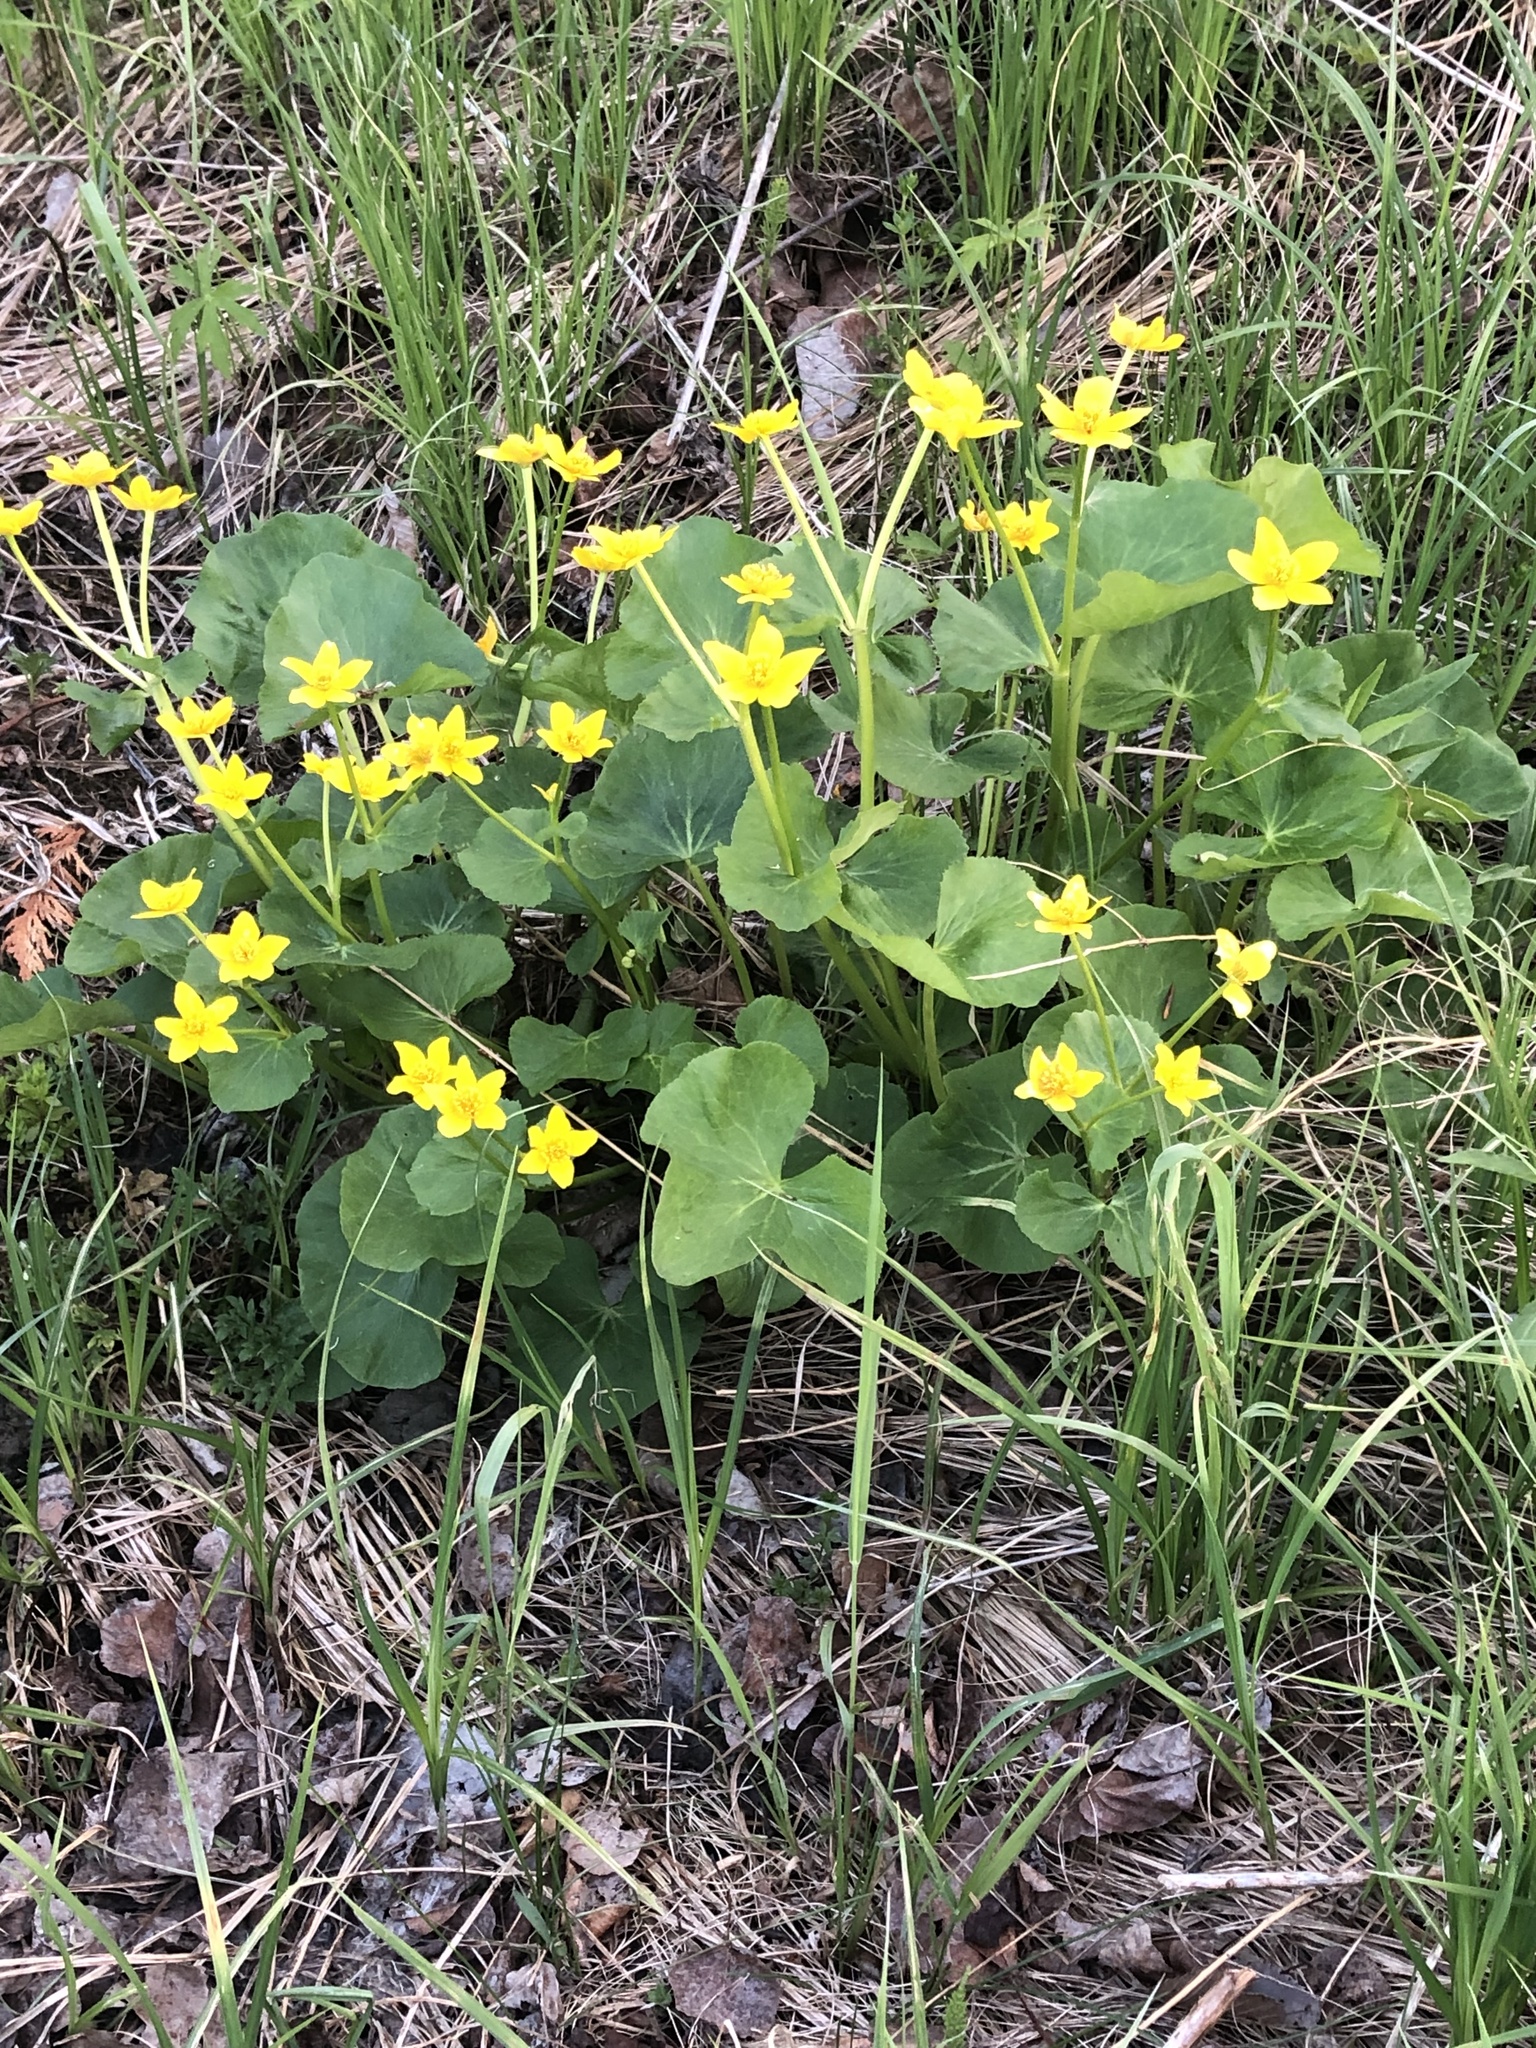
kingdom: Plantae
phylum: Tracheophyta
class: Magnoliopsida
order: Ranunculales
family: Ranunculaceae
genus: Caltha
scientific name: Caltha palustris
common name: Marsh marigold
